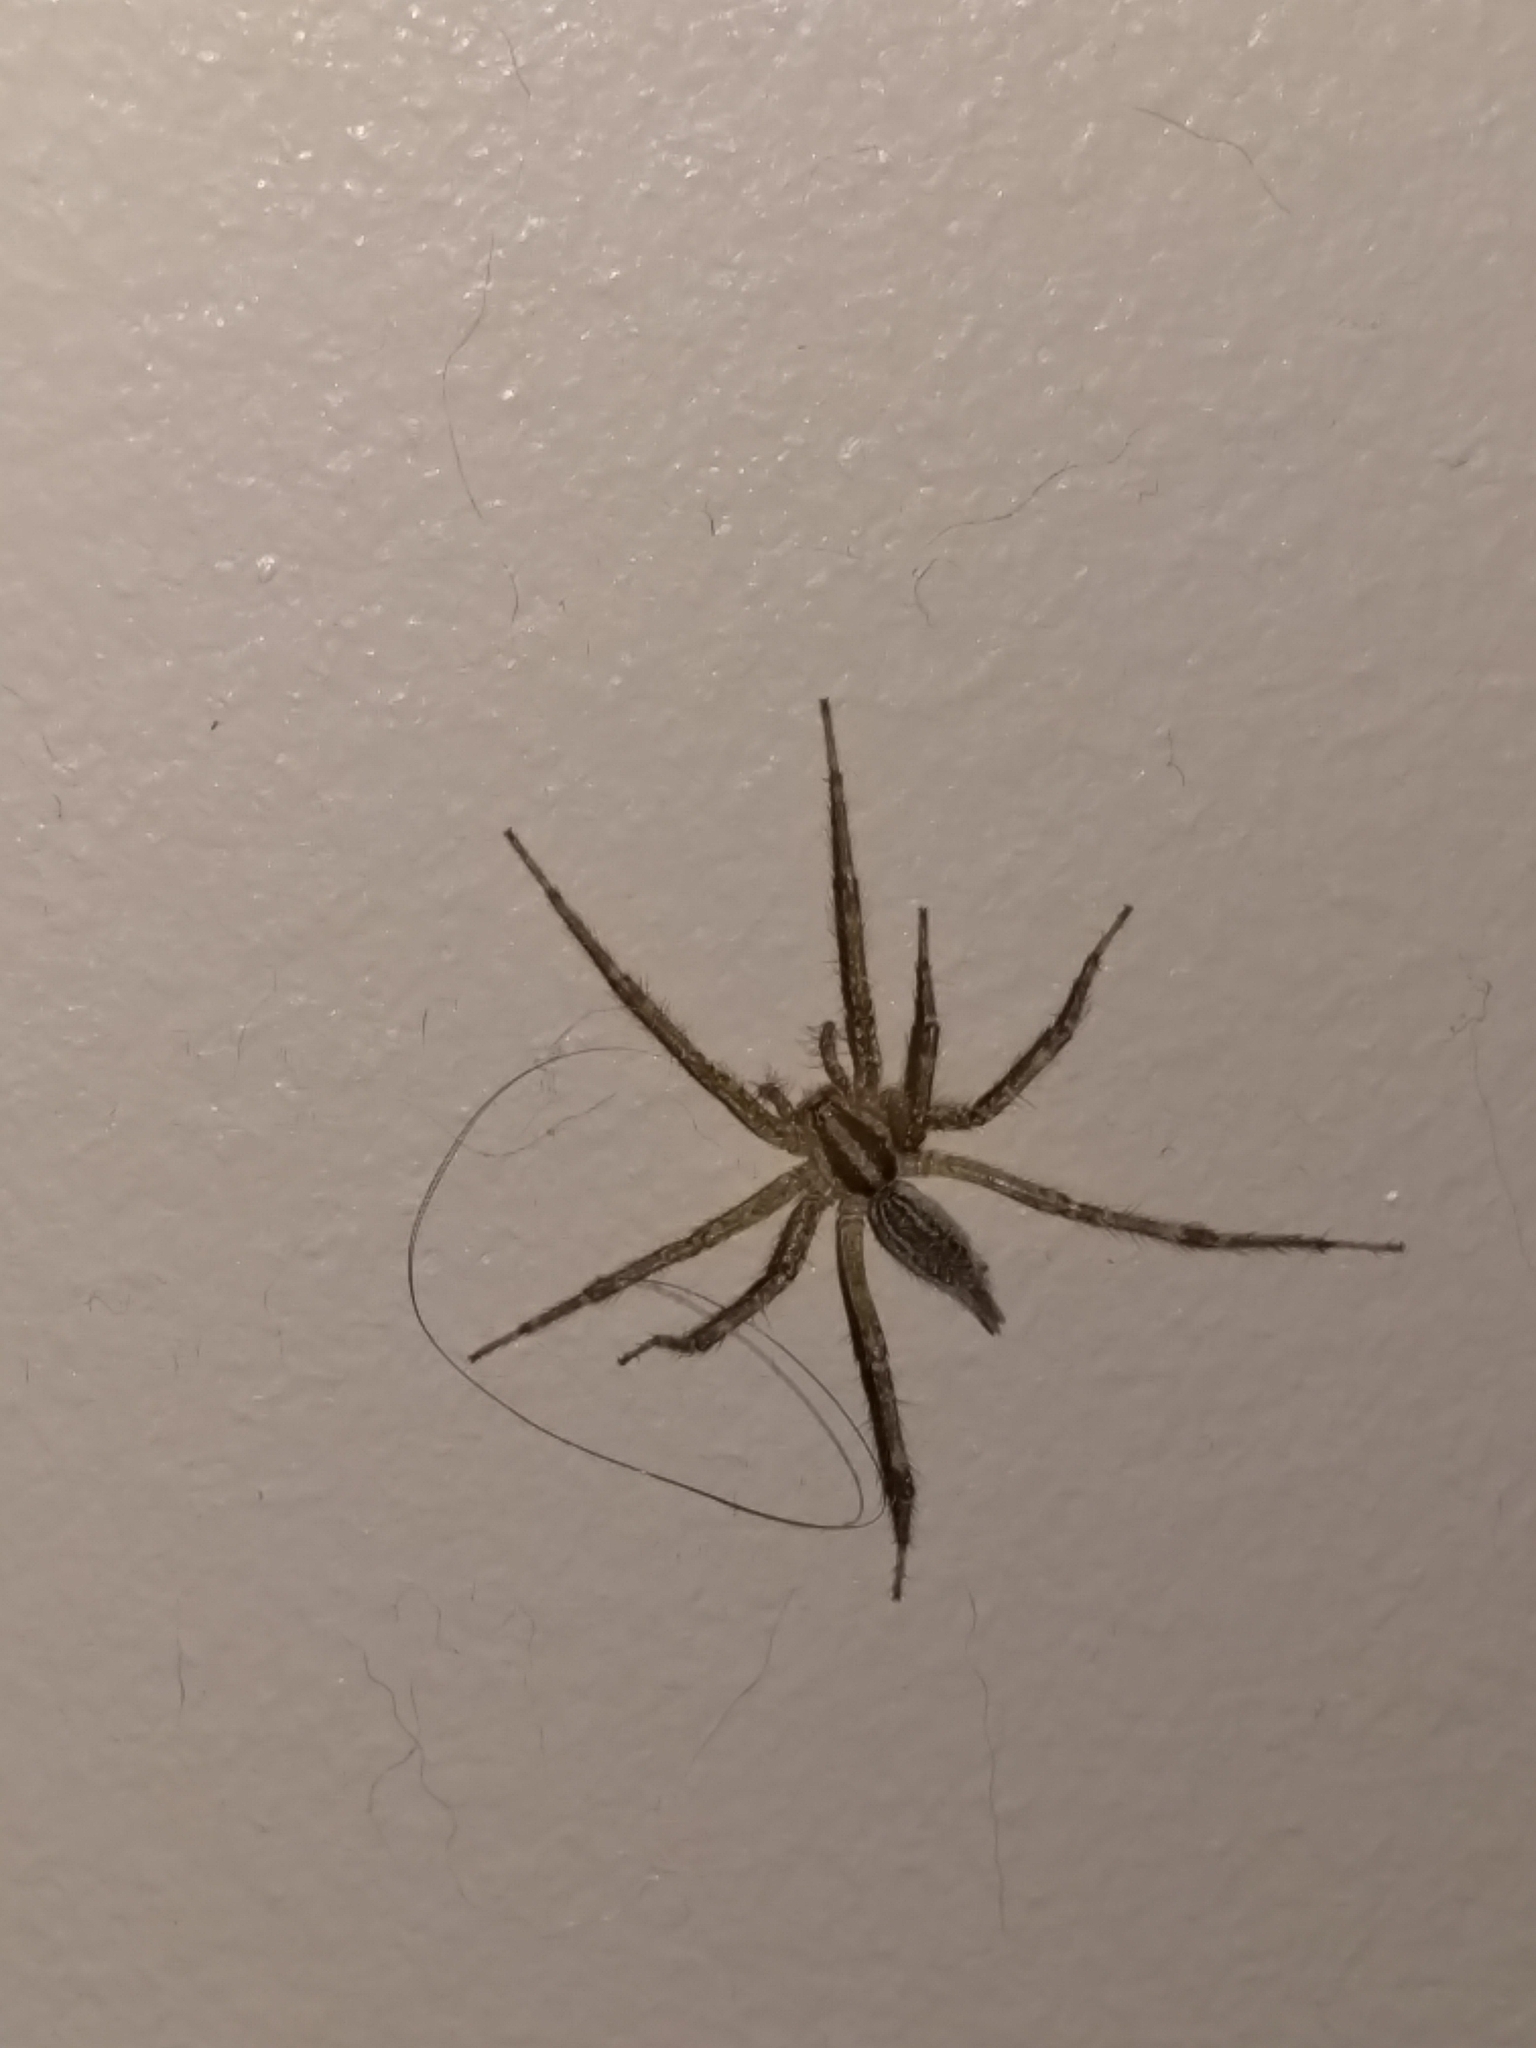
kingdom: Animalia
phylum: Arthropoda
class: Arachnida
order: Araneae
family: Agelenidae
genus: Agelenopsis
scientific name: Agelenopsis
